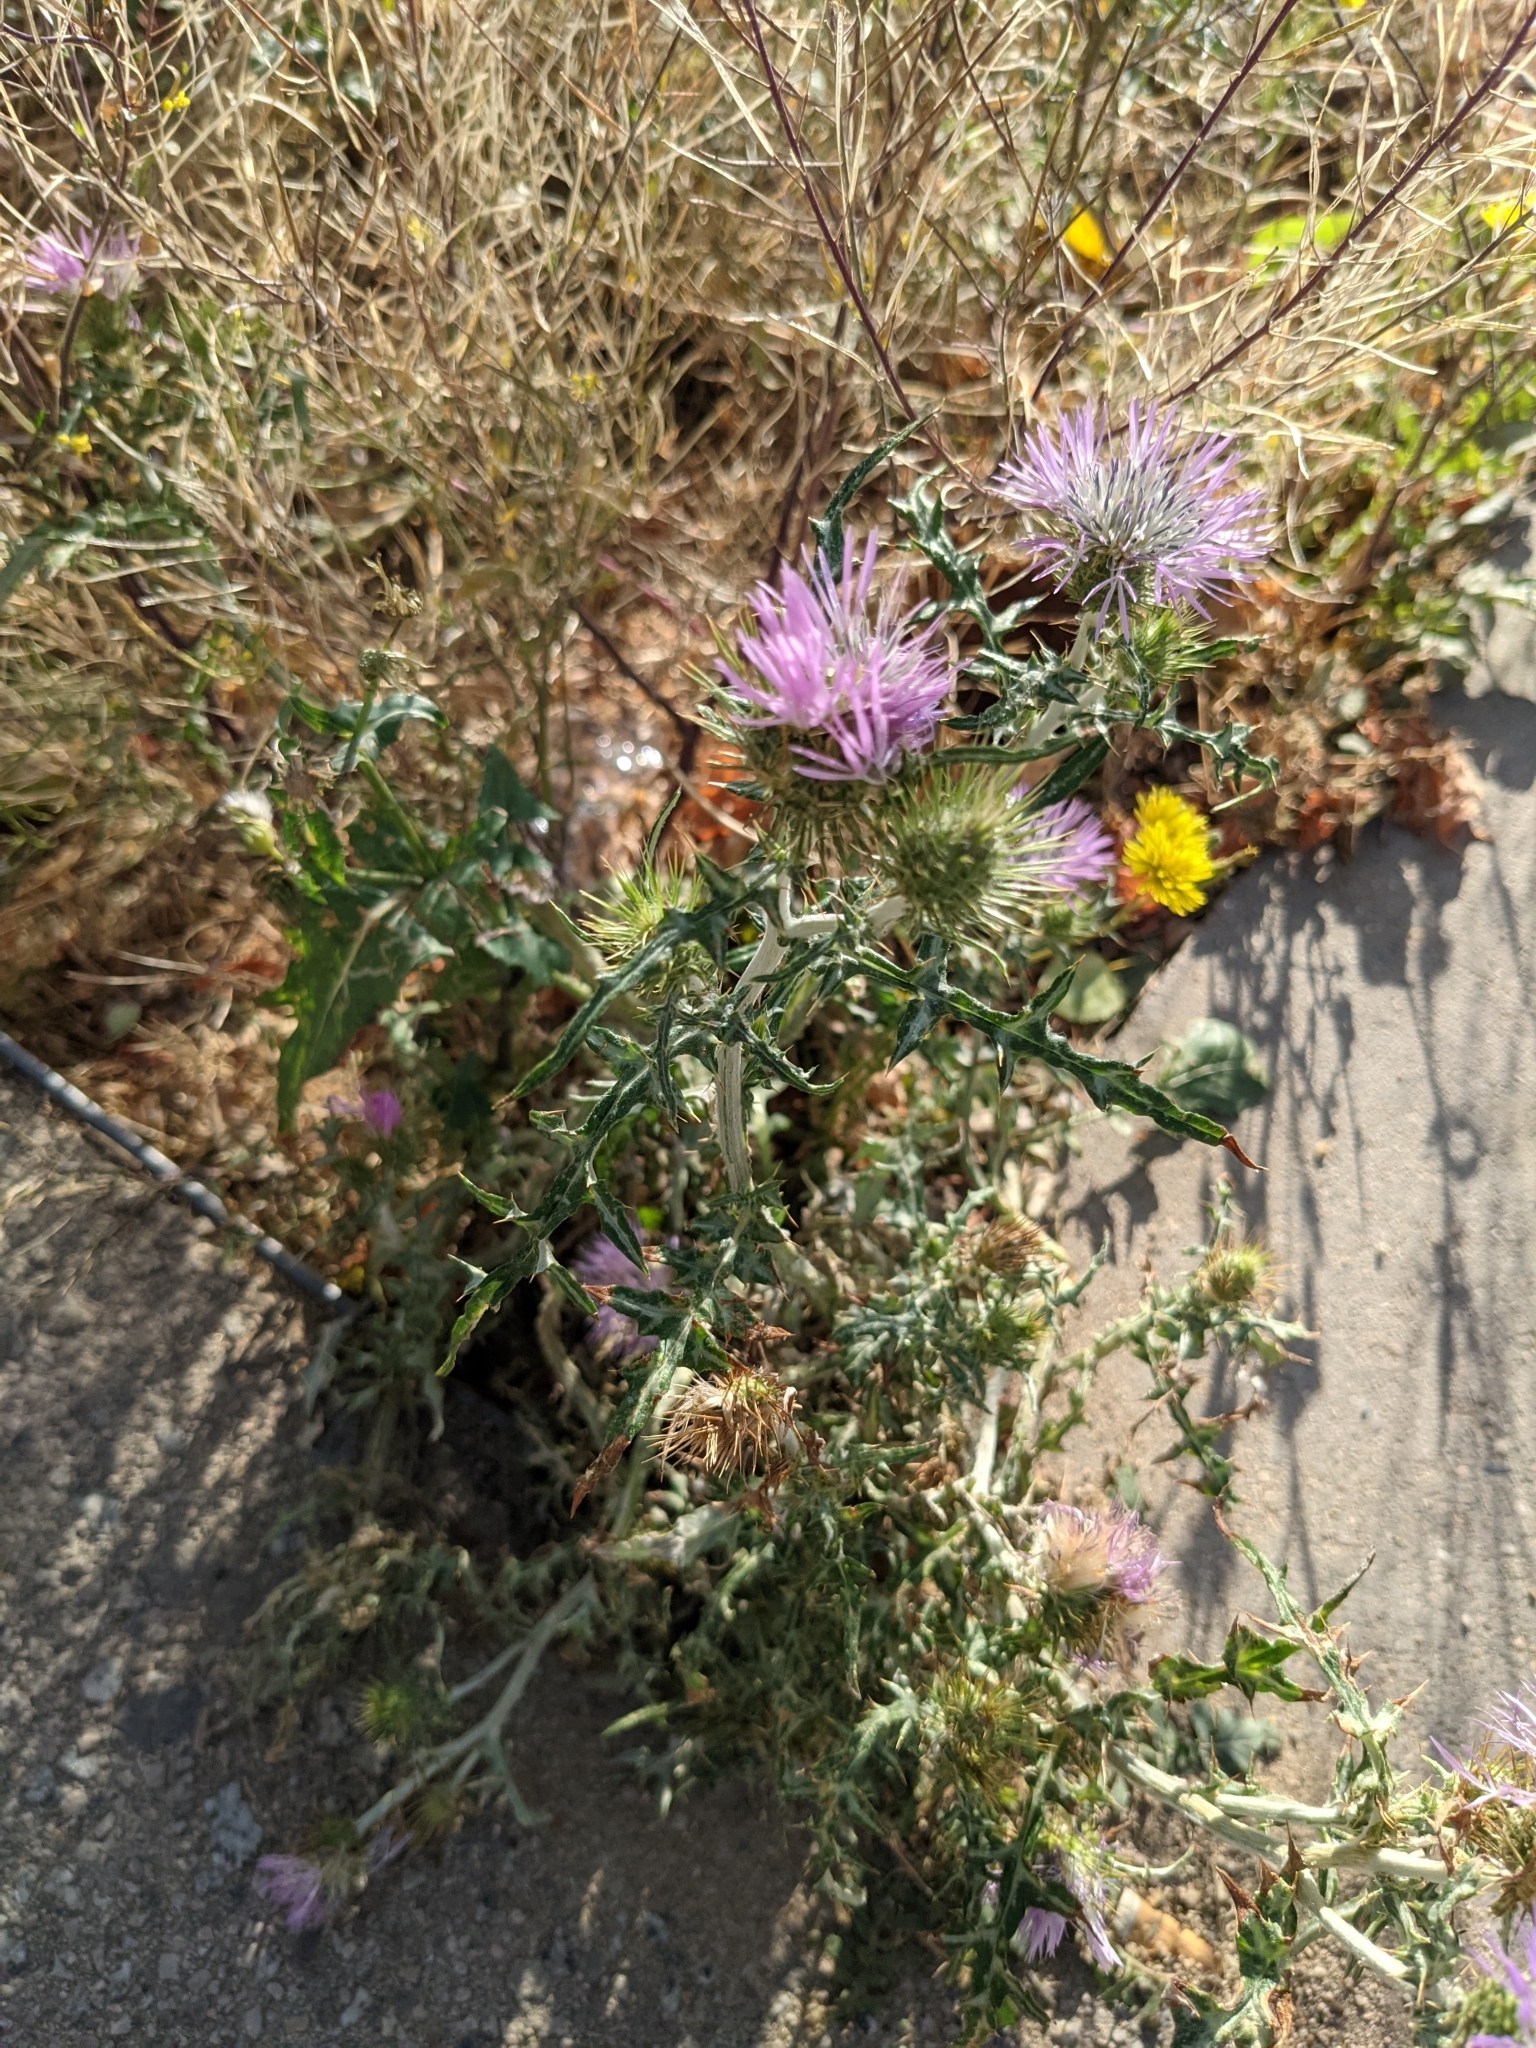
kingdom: Plantae
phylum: Tracheophyta
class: Magnoliopsida
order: Asterales
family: Asteraceae
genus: Galactites
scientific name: Galactites tomentosa
